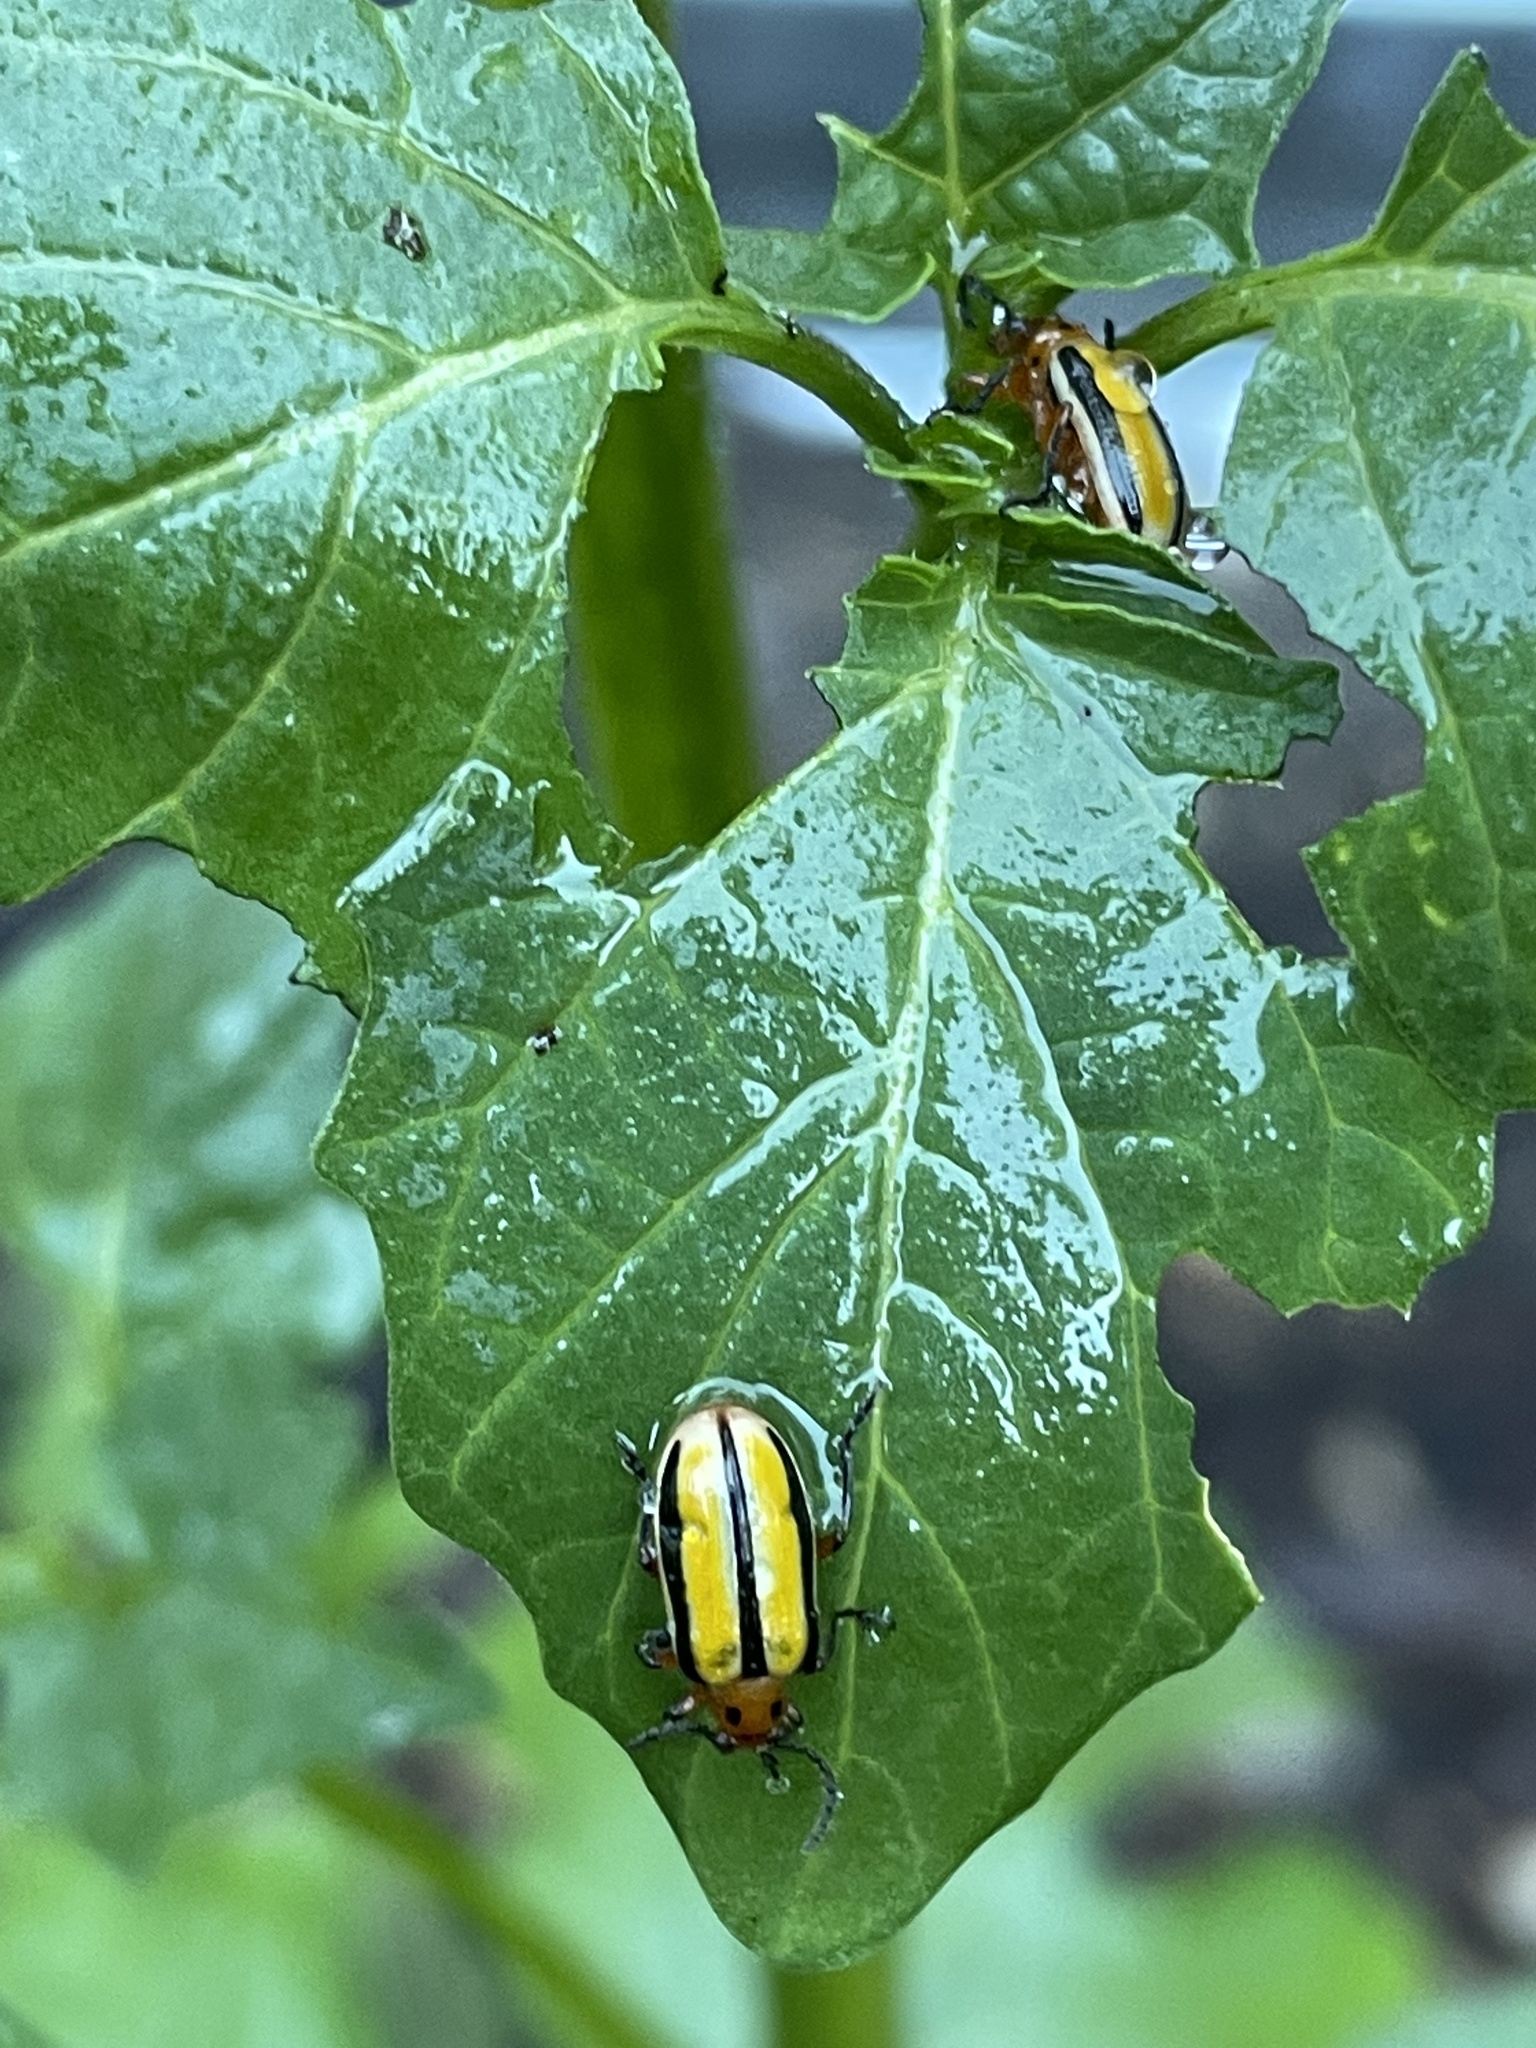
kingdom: Animalia
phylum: Arthropoda
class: Insecta
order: Coleoptera
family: Chrysomelidae
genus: Lema
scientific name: Lema daturaphila
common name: Leaf beetle
